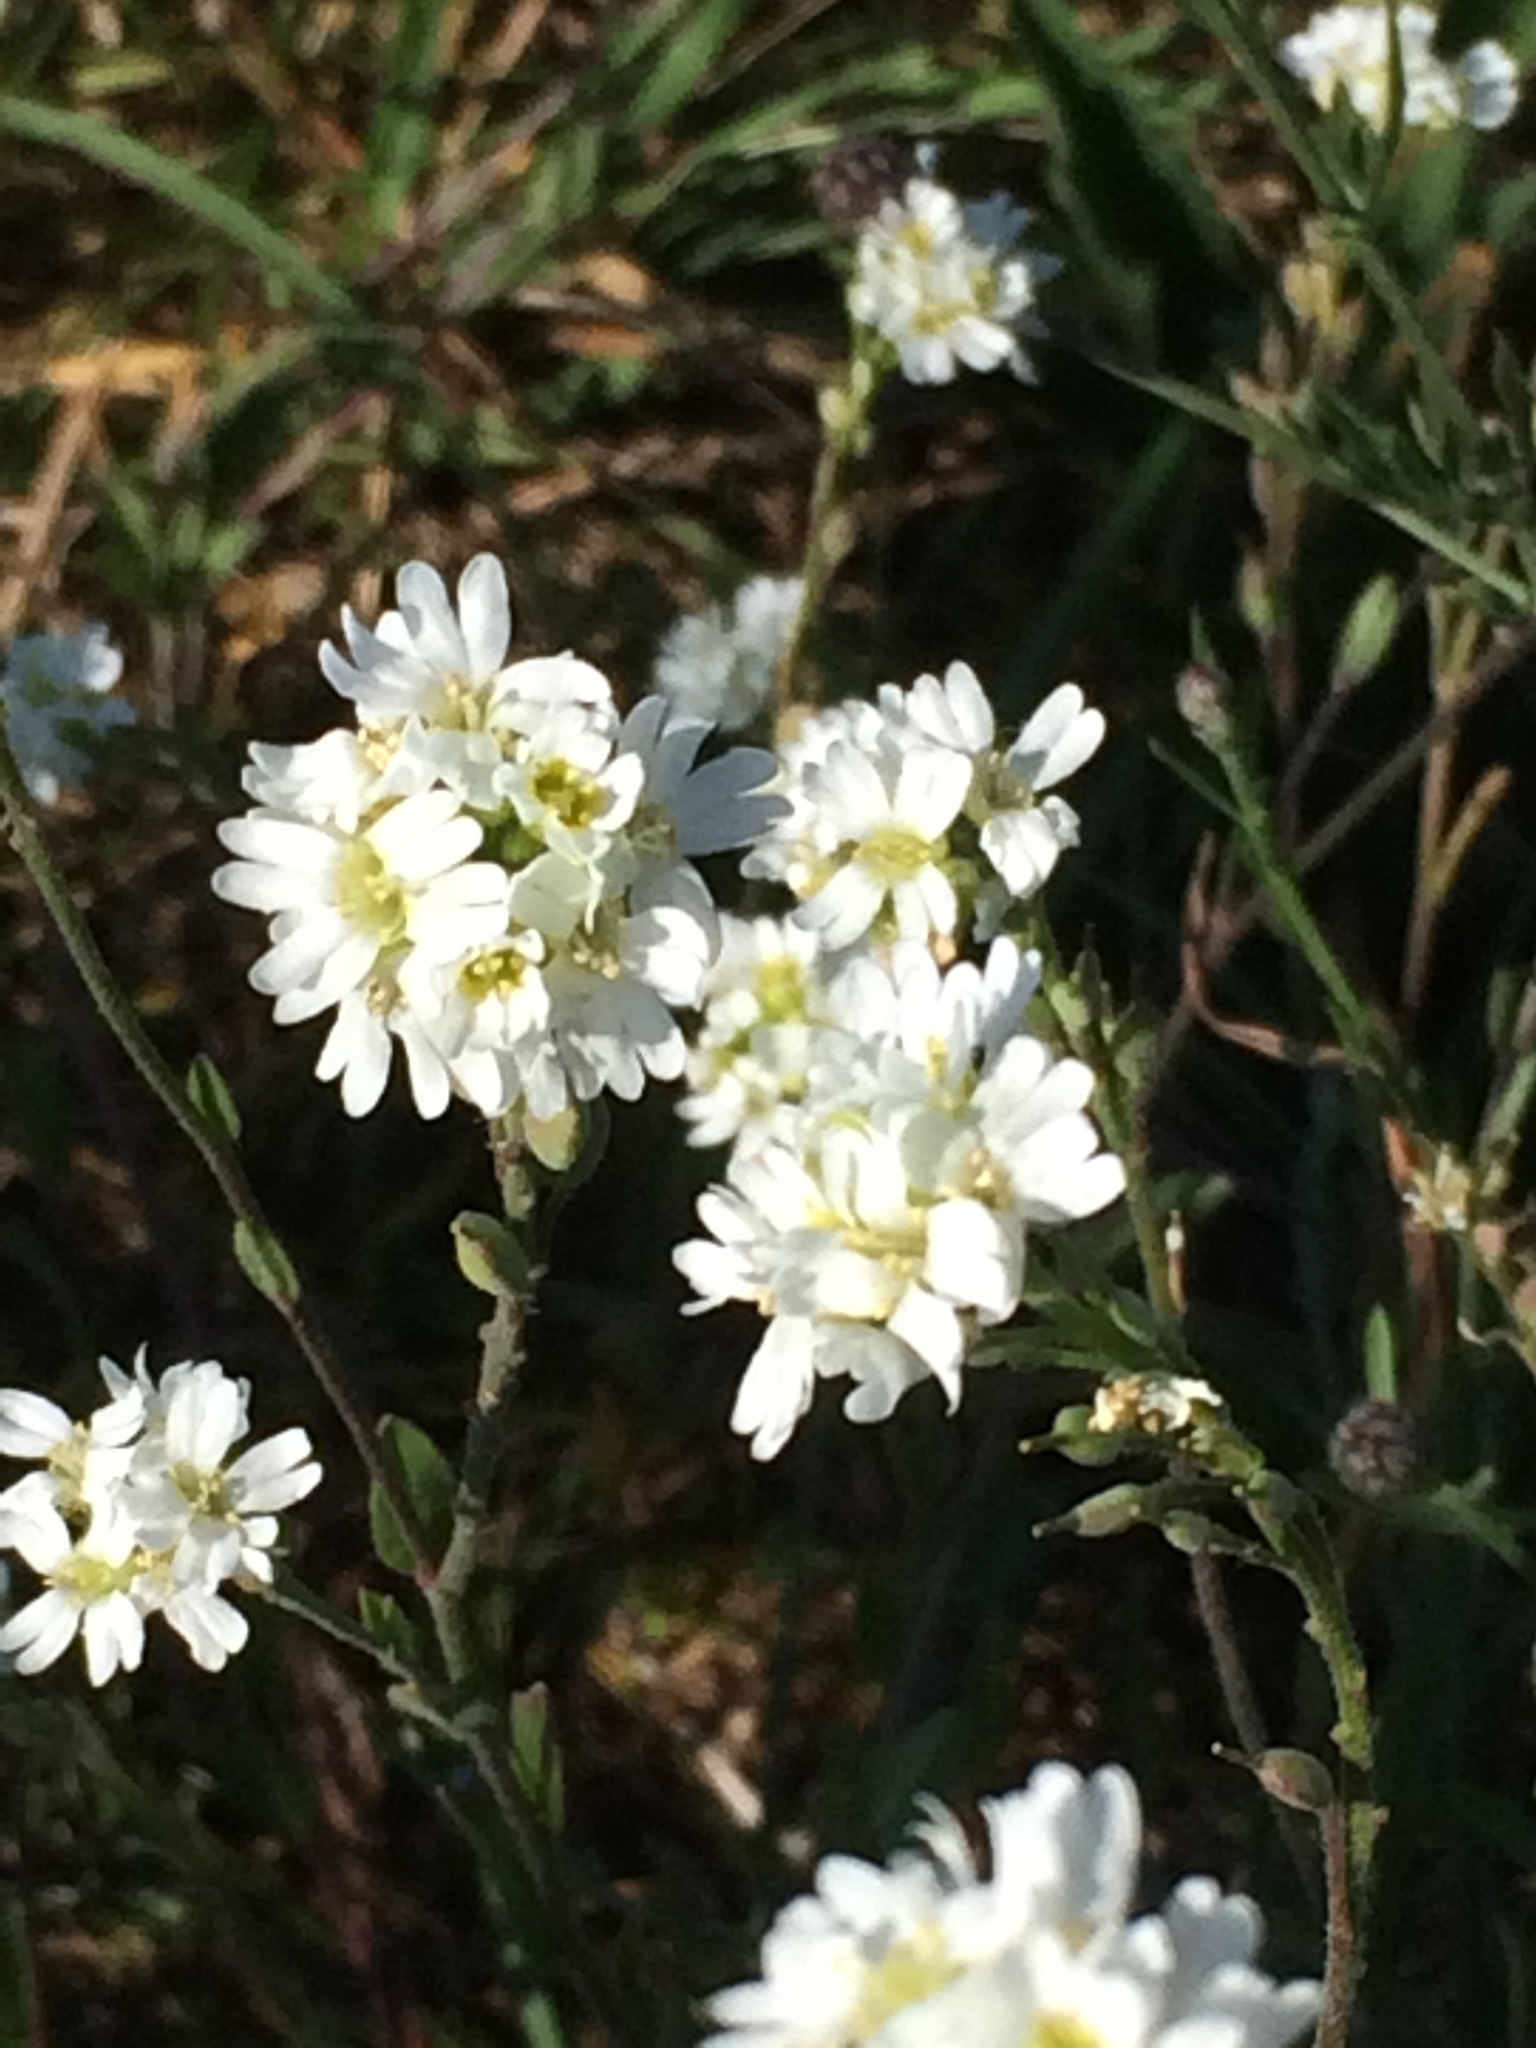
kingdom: Plantae
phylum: Tracheophyta
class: Magnoliopsida
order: Brassicales
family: Brassicaceae
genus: Berteroa
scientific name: Berteroa incana
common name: Hoary alison
